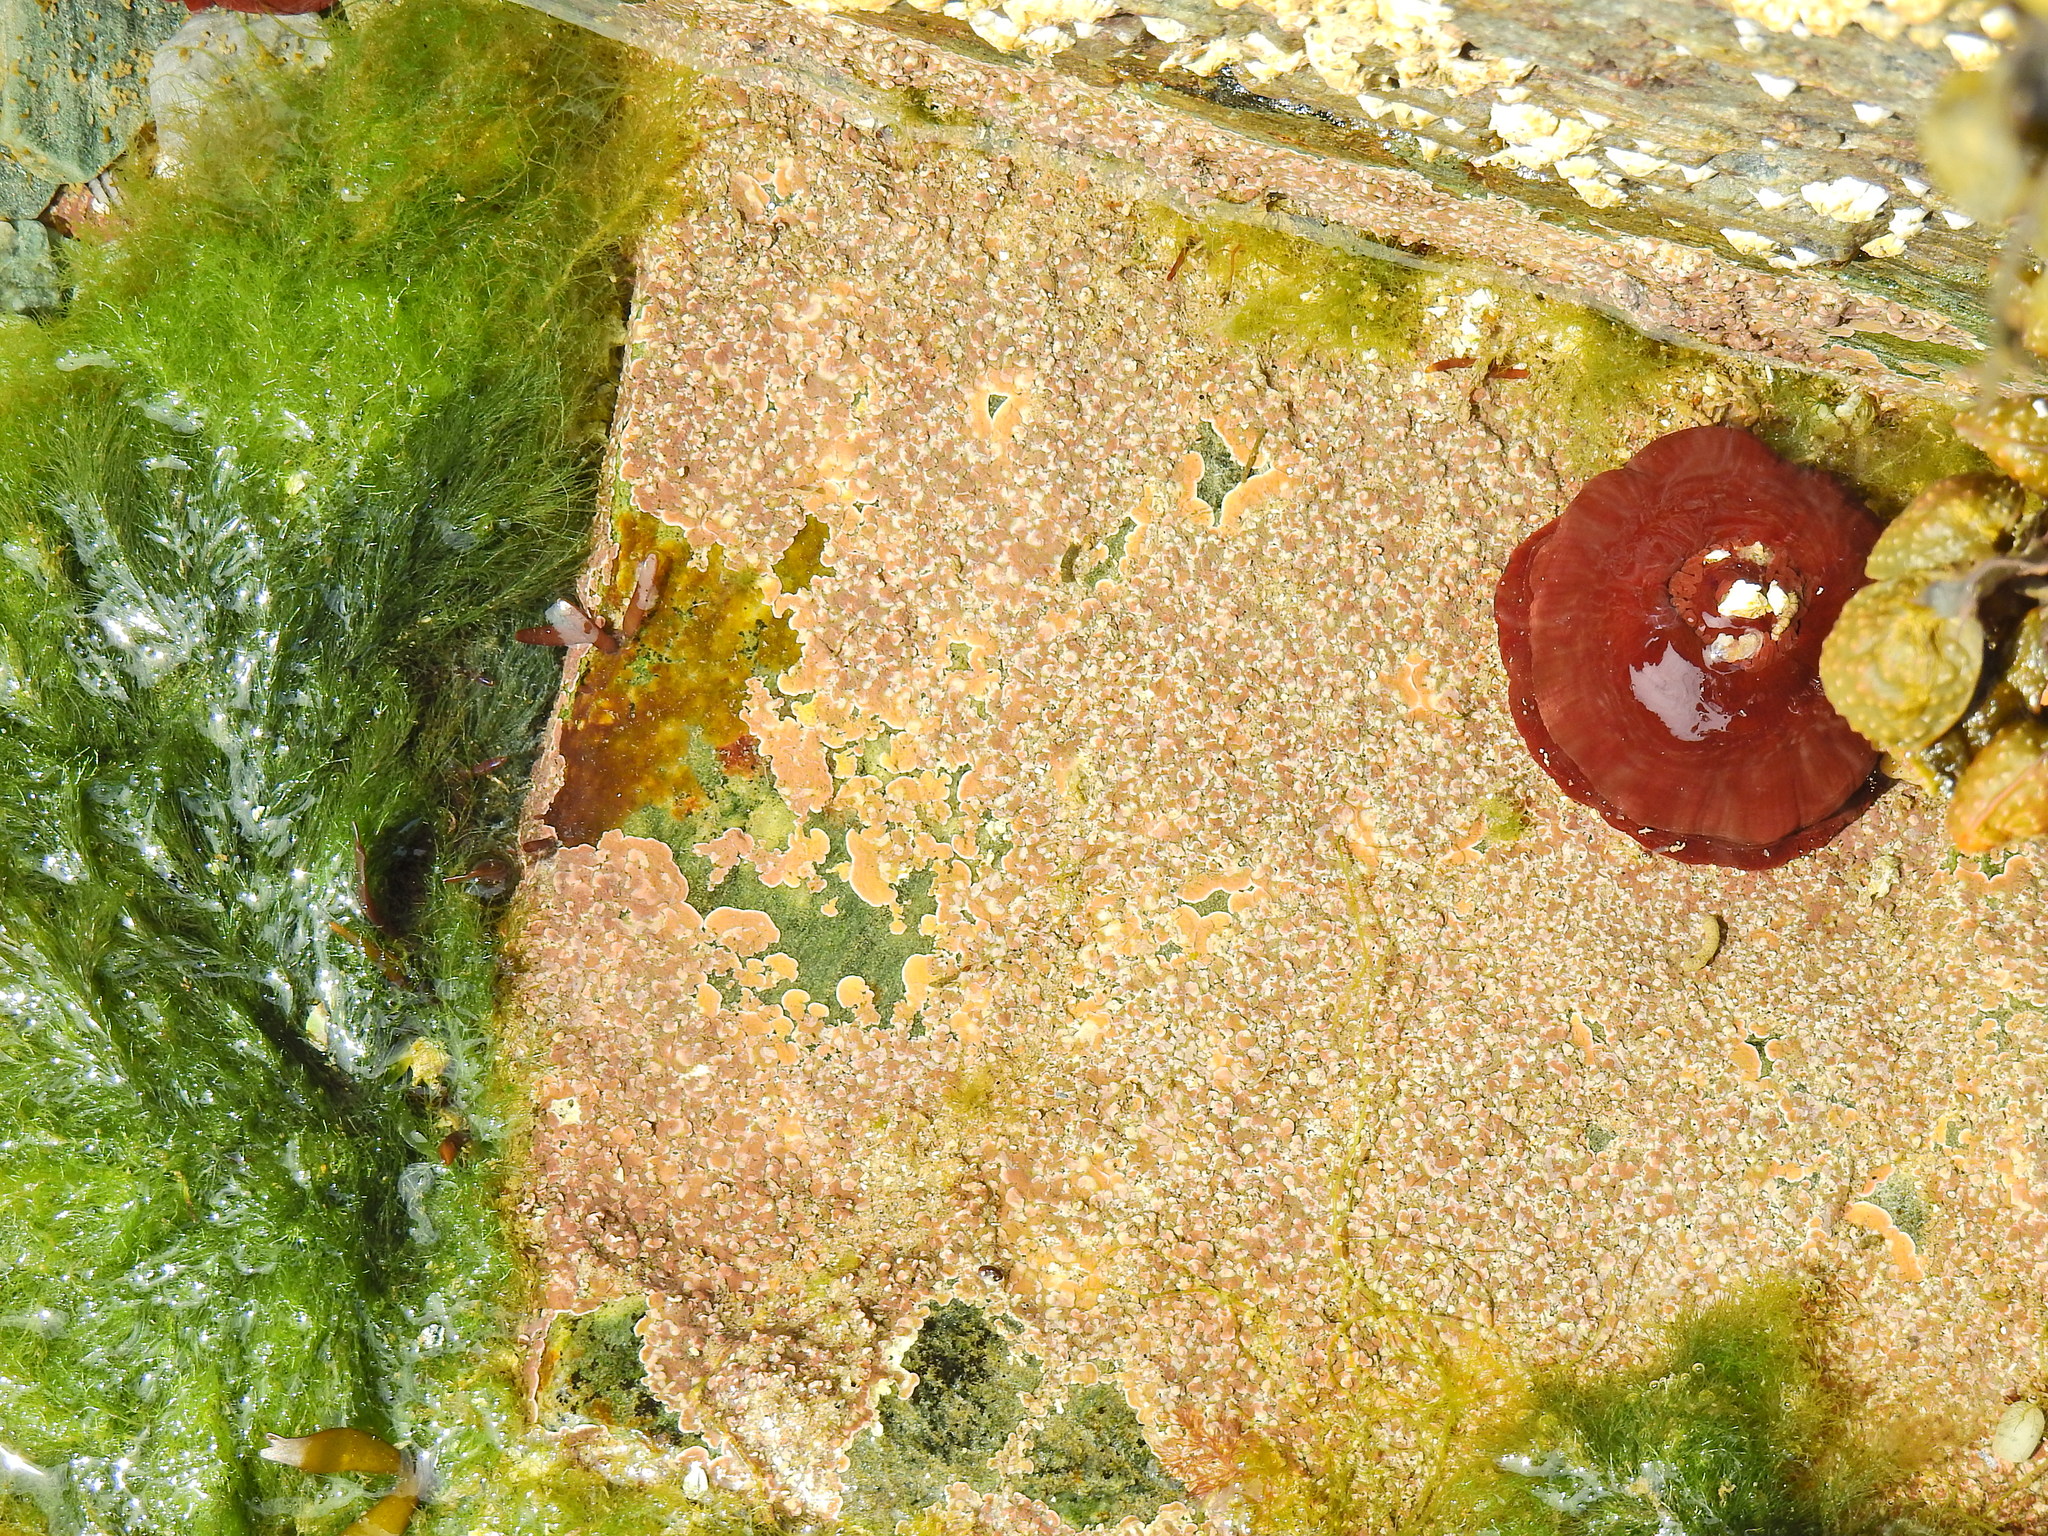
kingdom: Animalia
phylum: Cnidaria
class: Anthozoa
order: Actiniaria
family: Actiniidae
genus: Actinia
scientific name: Actinia equina
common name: Beadlet anemone
